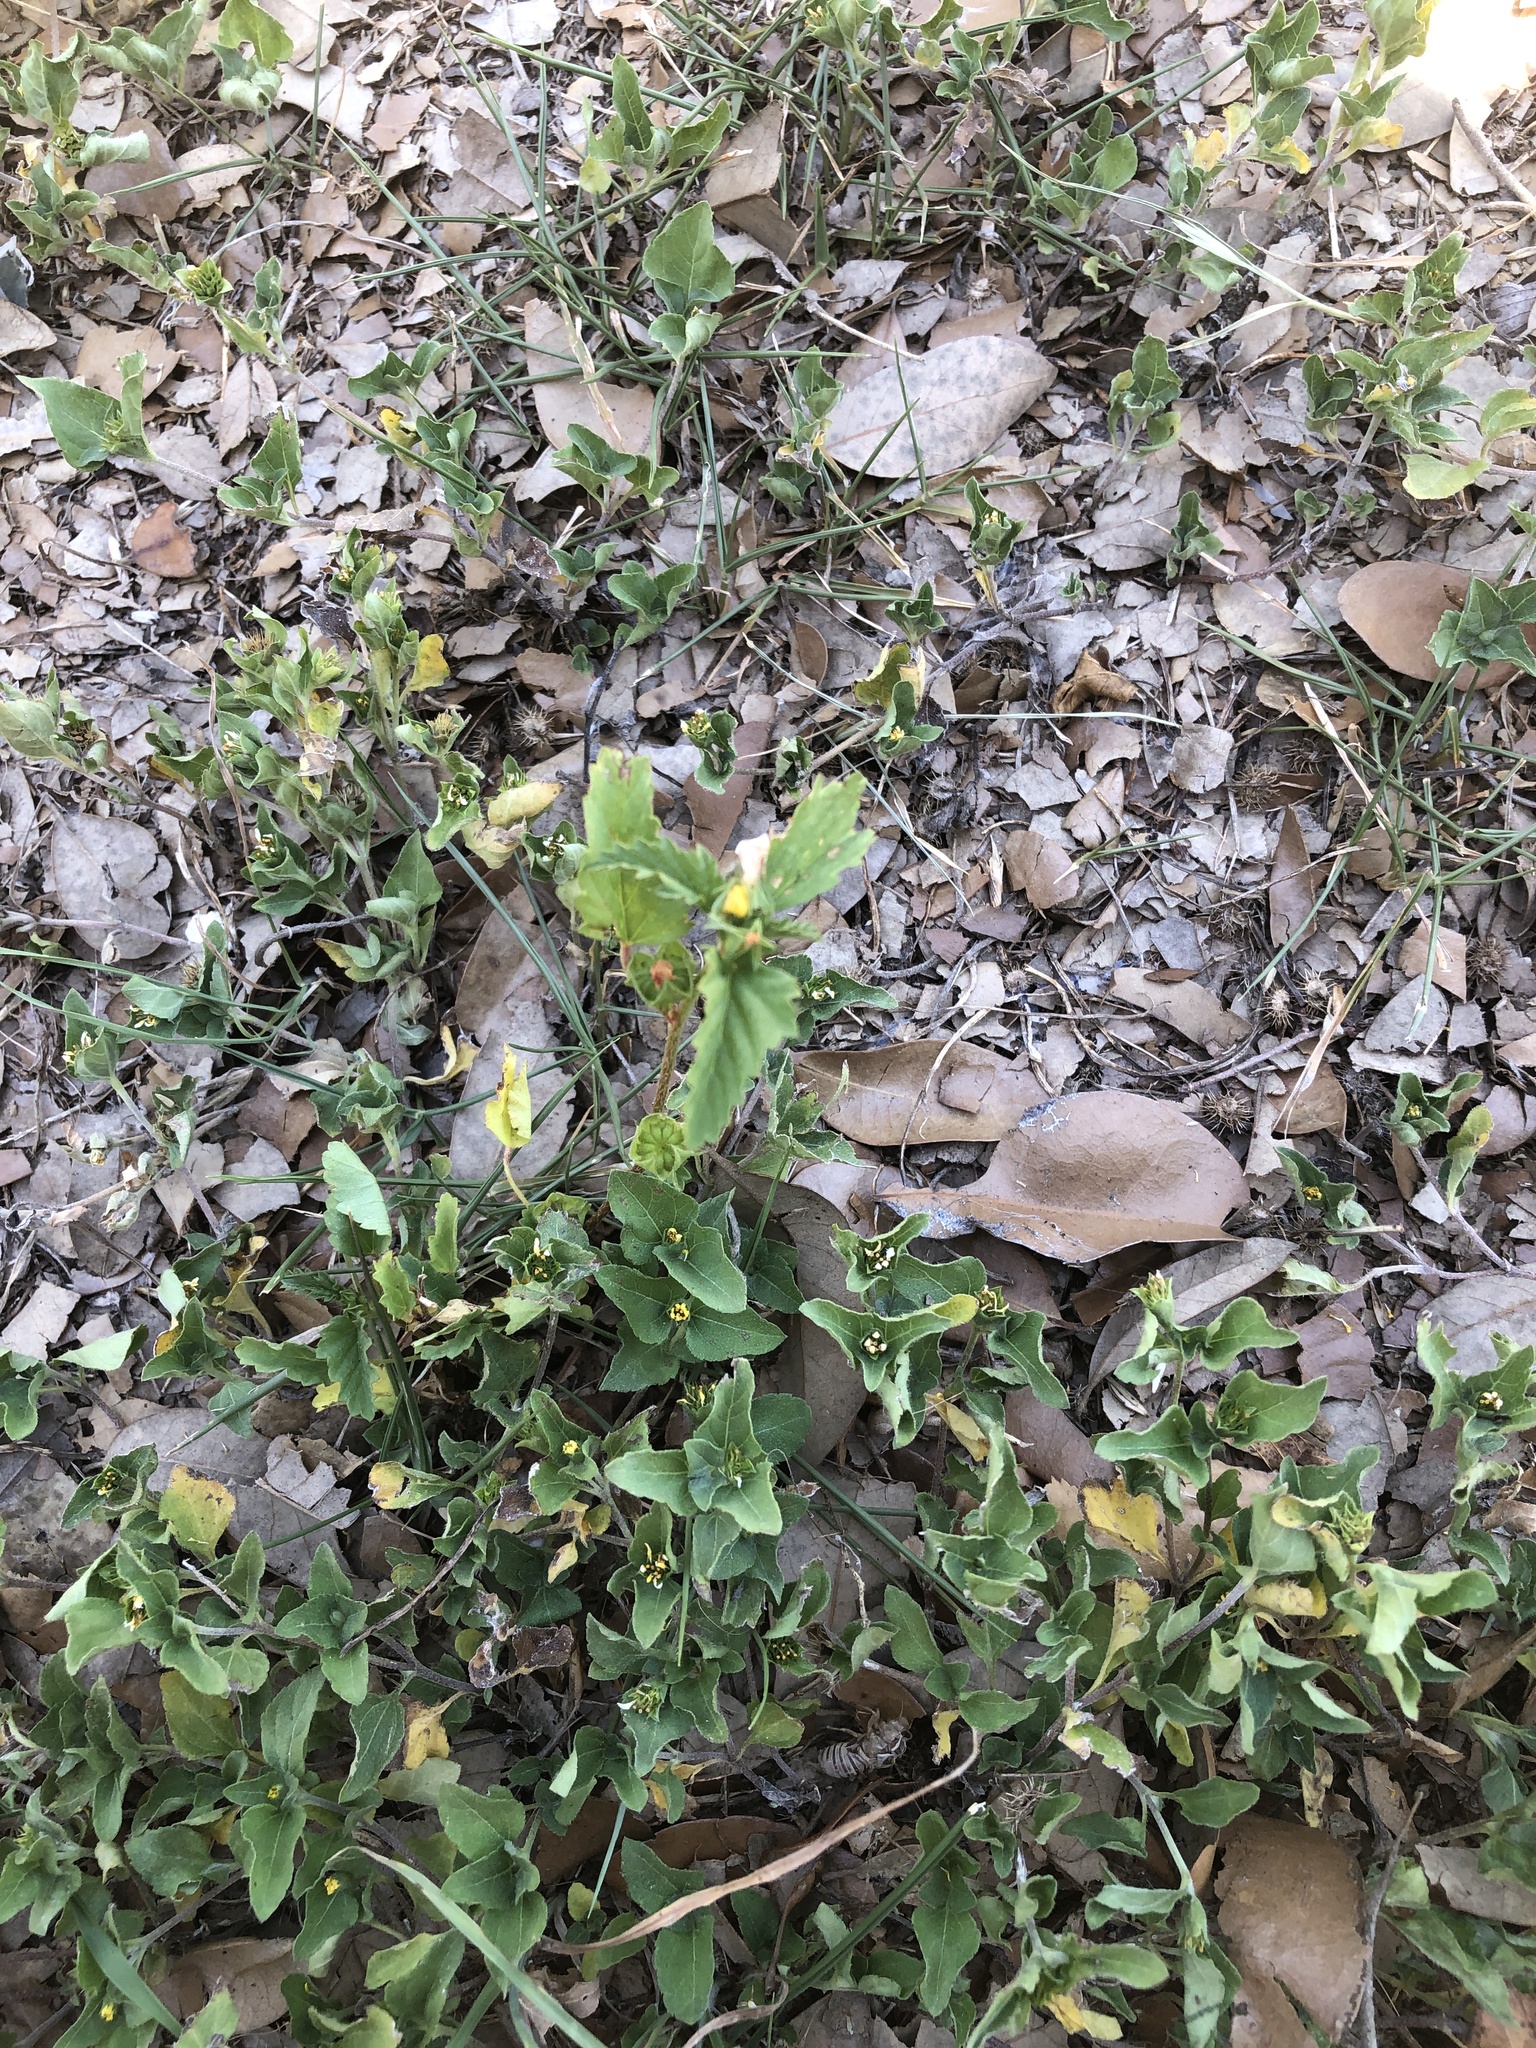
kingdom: Plantae
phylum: Tracheophyta
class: Magnoliopsida
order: Malvales
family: Malvaceae
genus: Malvastrum
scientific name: Malvastrum coromandelianum
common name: Threelobe false mallow
